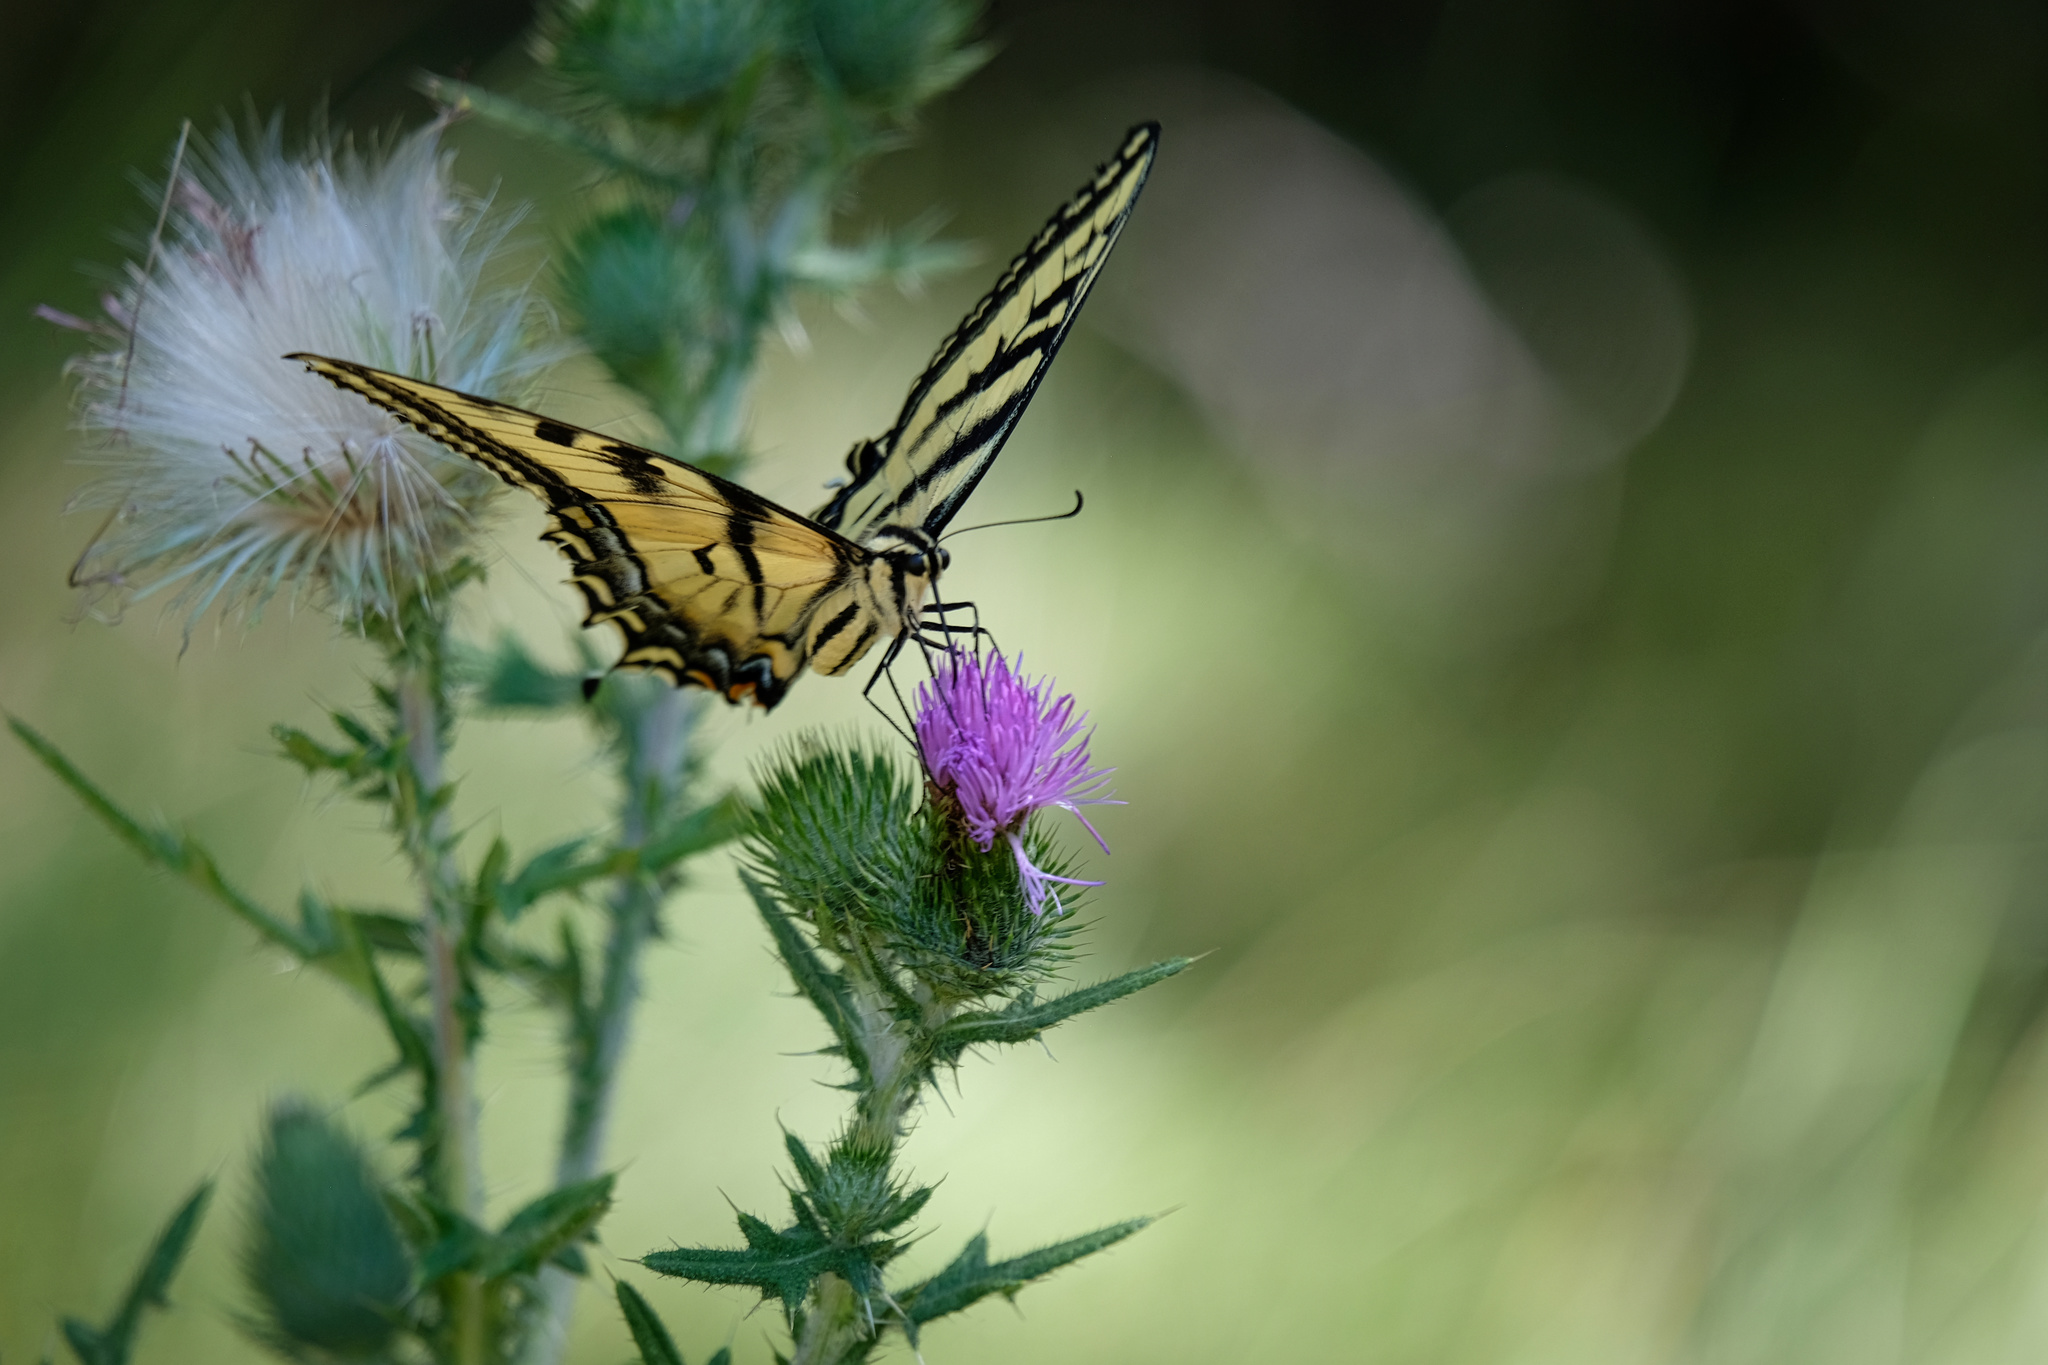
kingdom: Animalia
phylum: Arthropoda
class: Insecta
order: Lepidoptera
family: Papilionidae
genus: Papilio
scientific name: Papilio rutulus
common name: Western tiger swallowtail
